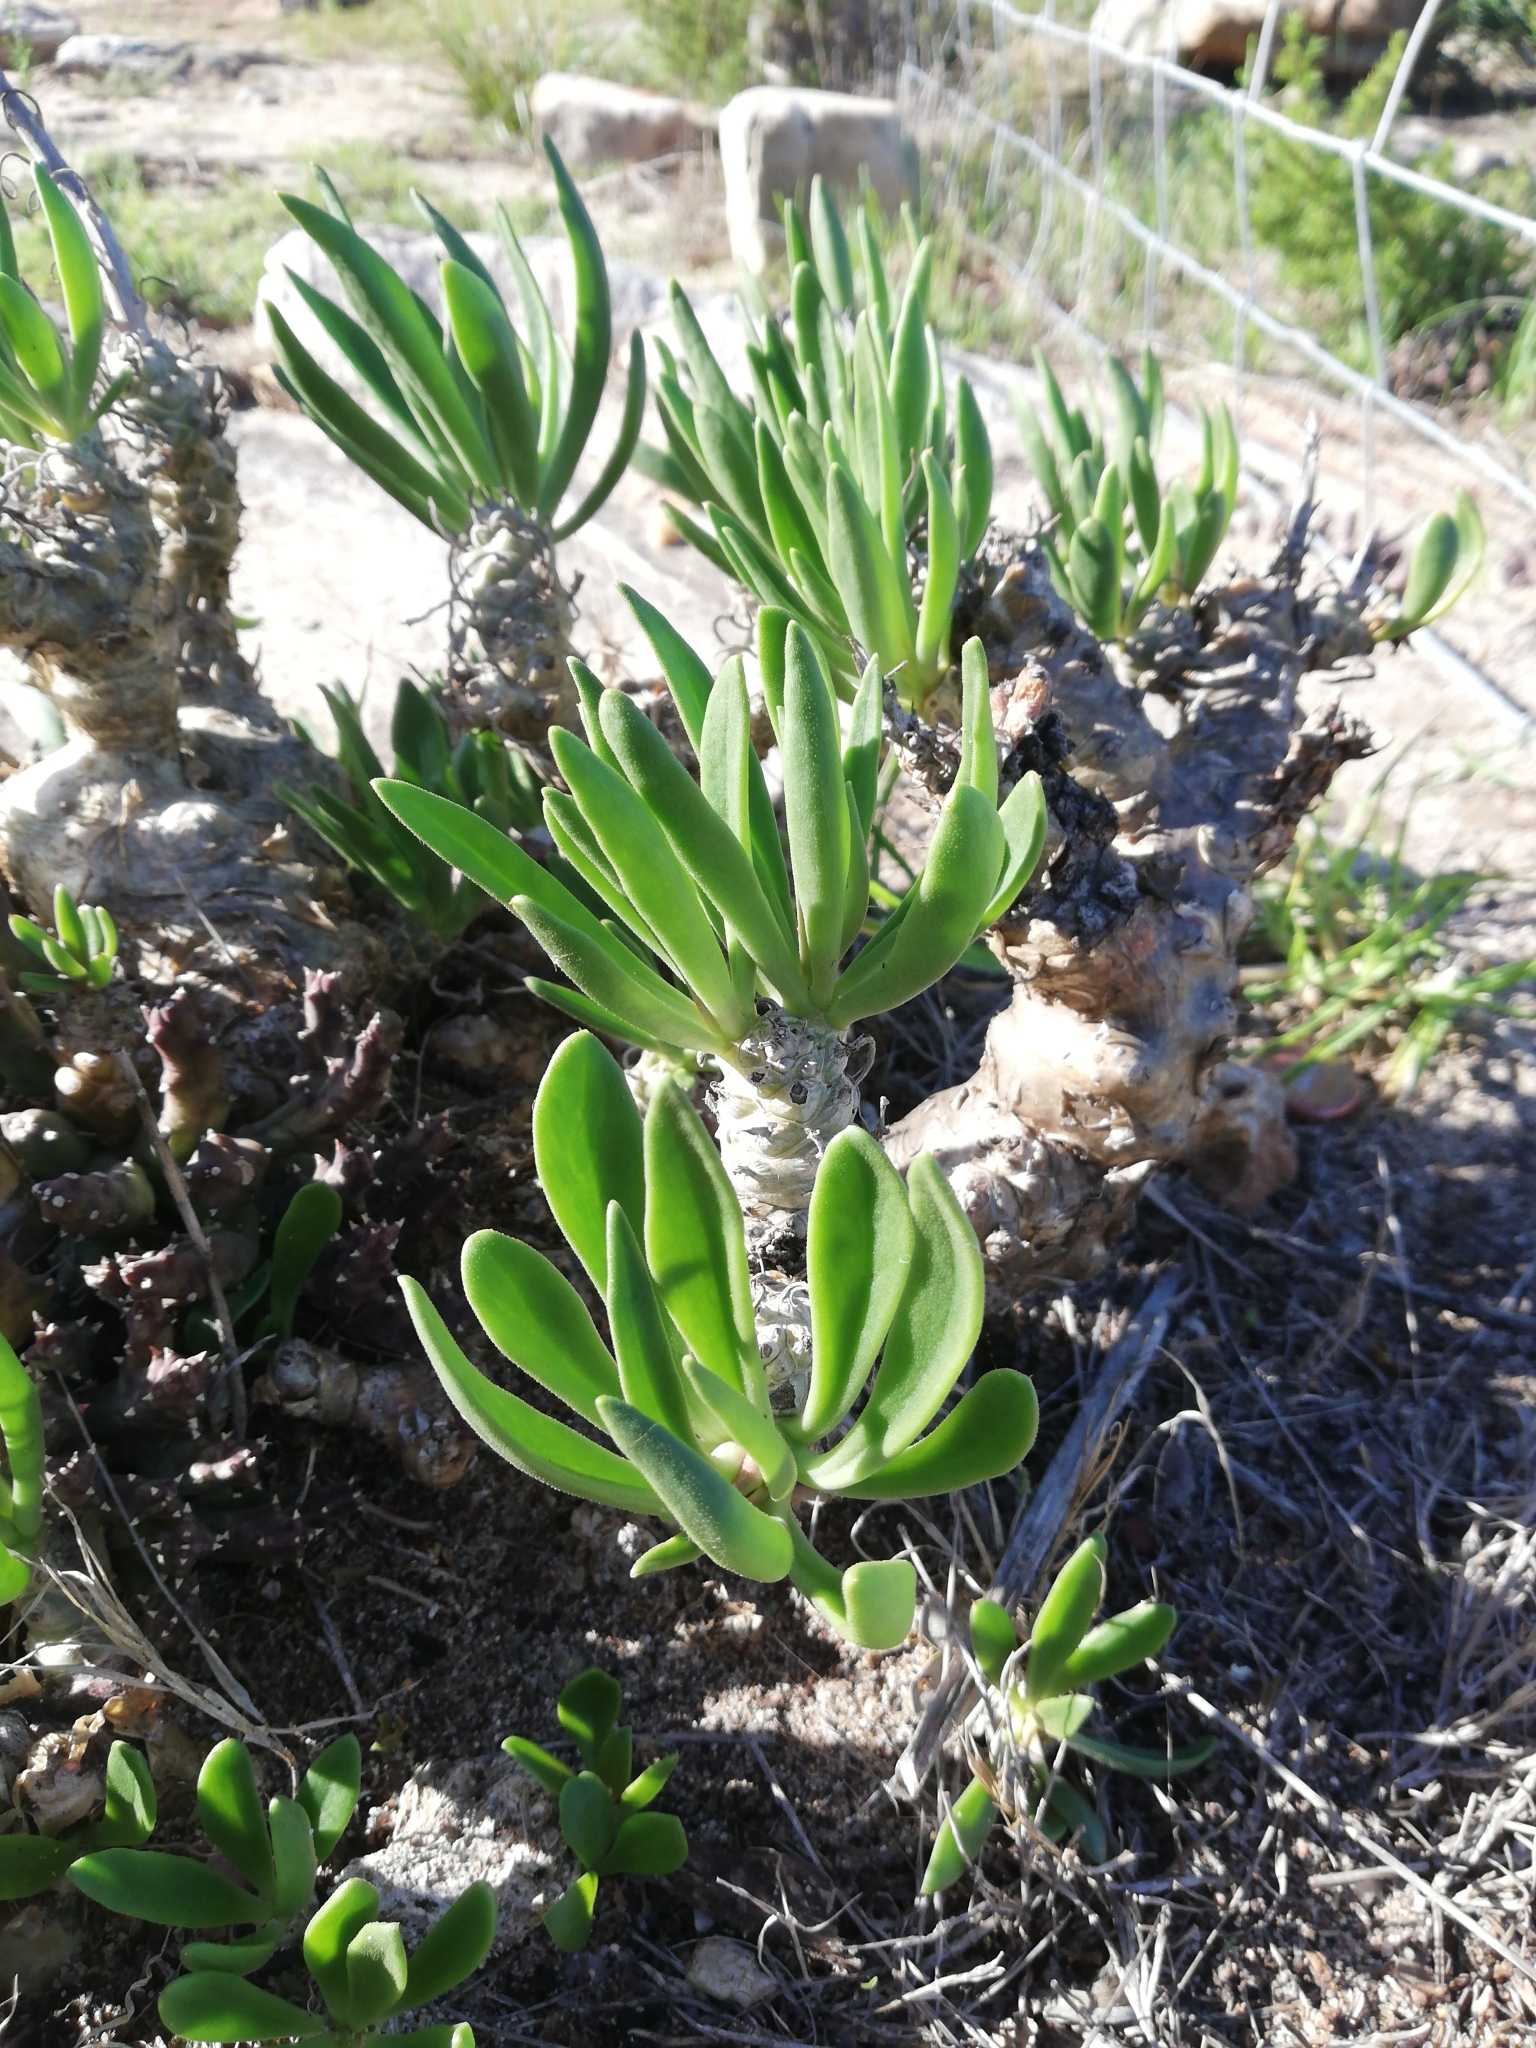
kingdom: Plantae
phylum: Tracheophyta
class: Magnoliopsida
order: Saxifragales
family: Crassulaceae
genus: Tylecodon
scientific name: Tylecodon grandiflorus
